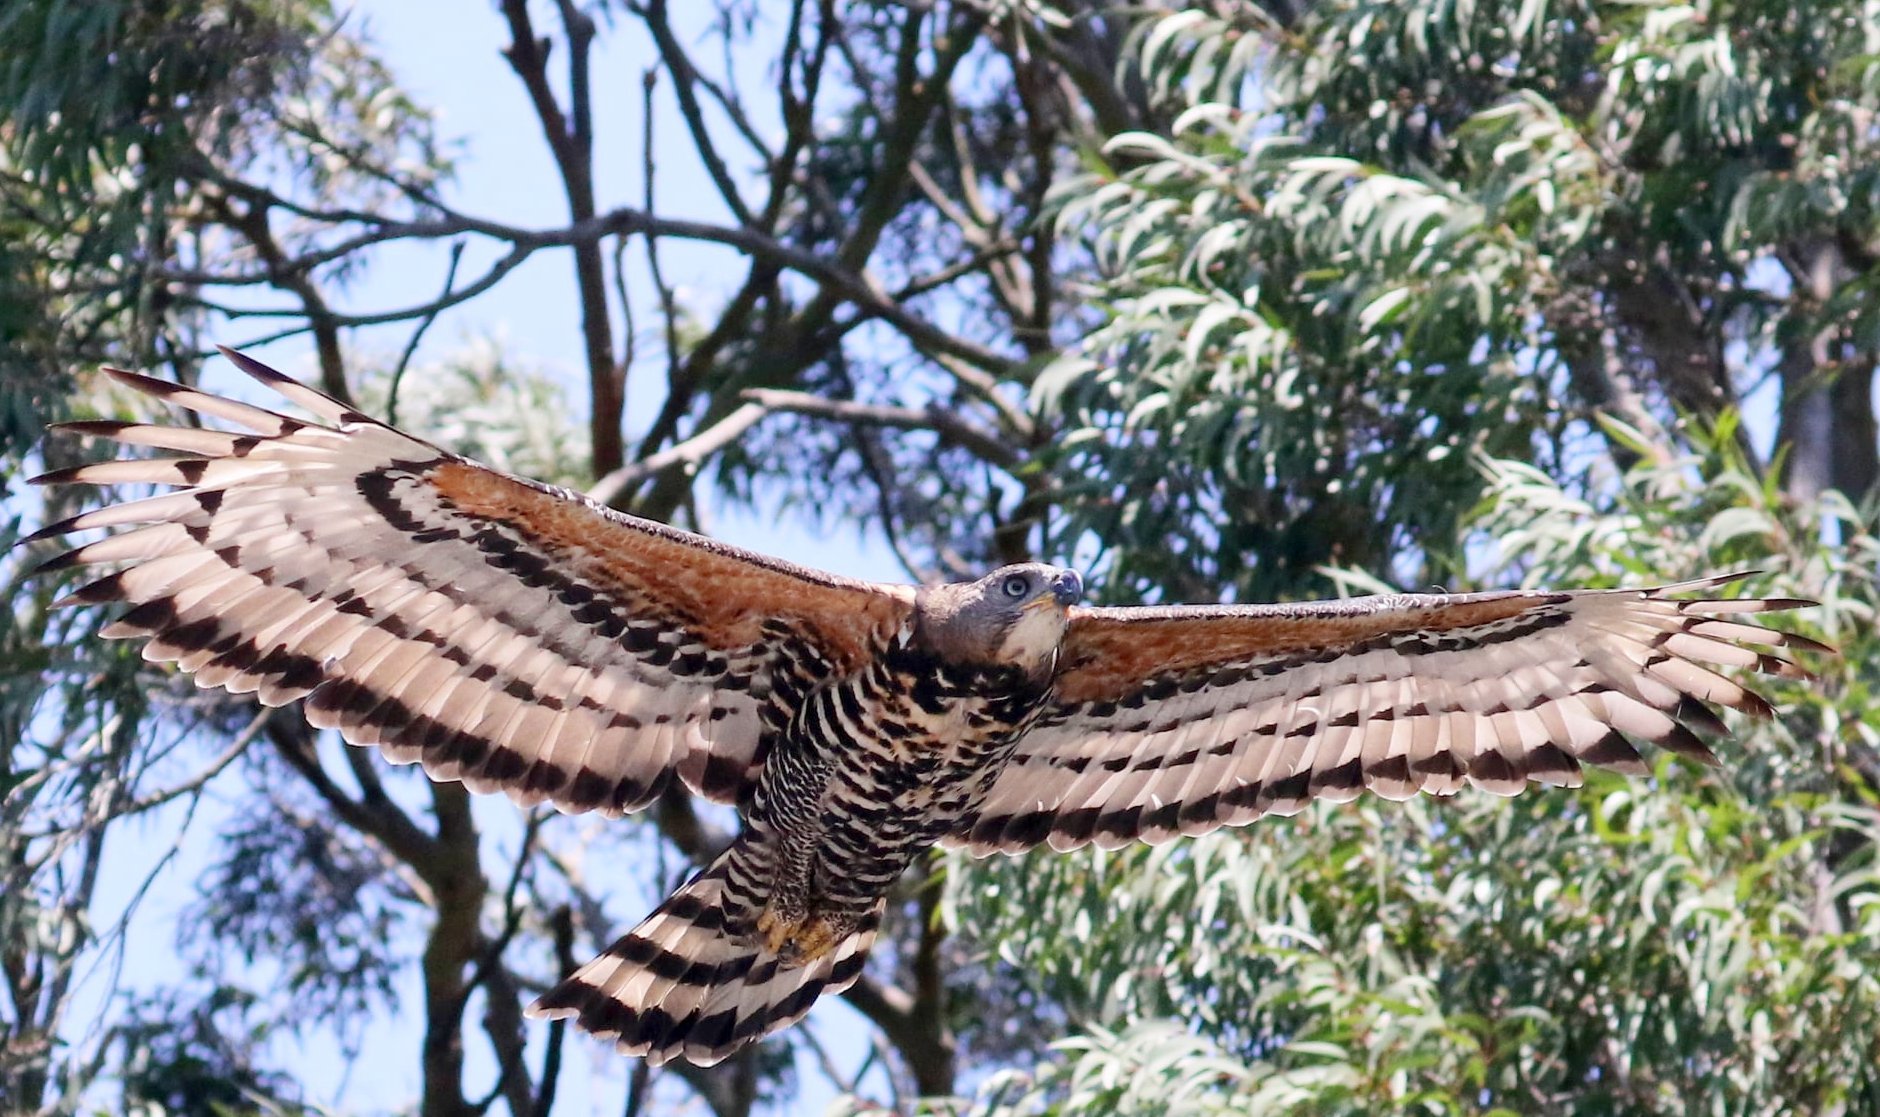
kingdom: Animalia
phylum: Chordata
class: Aves
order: Accipitriformes
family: Accipitridae
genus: Stephanoaetus
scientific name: Stephanoaetus coronatus
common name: Crowned eagle
